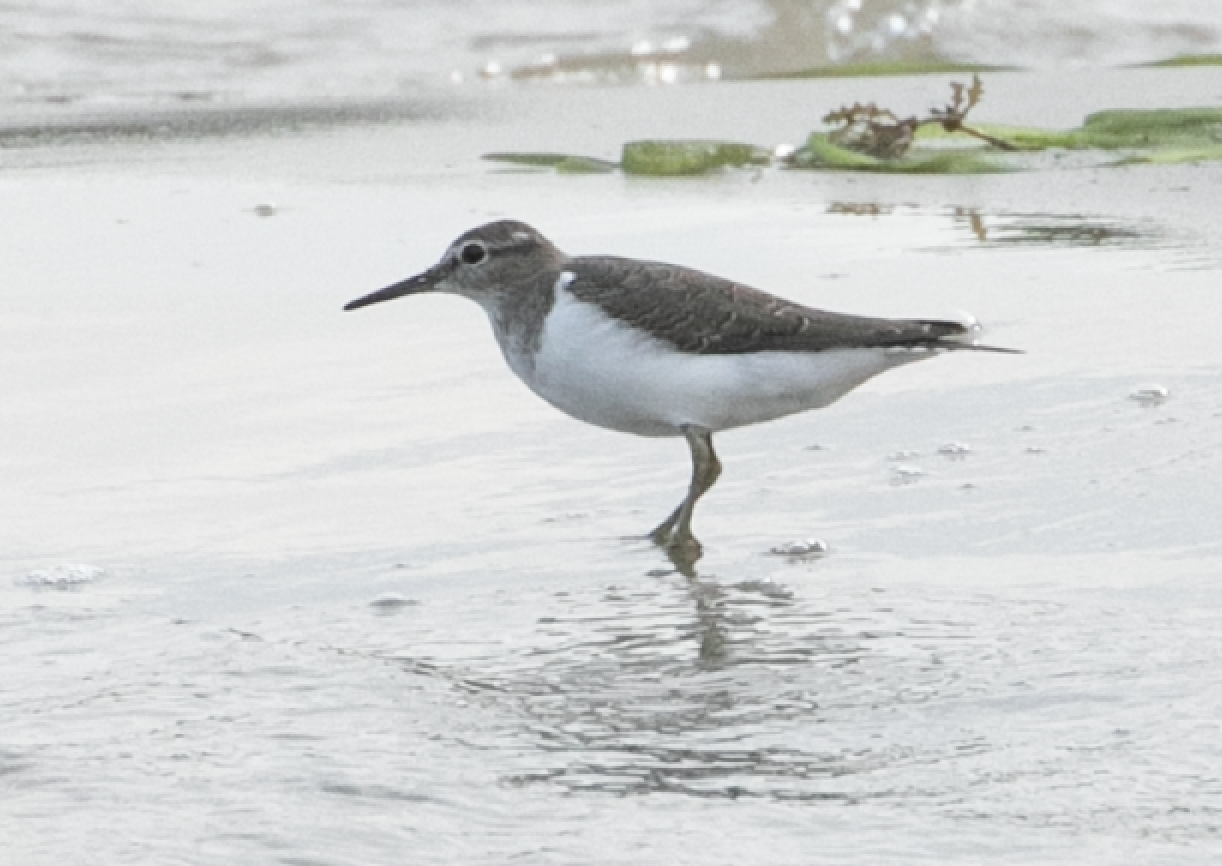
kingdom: Animalia
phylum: Chordata
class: Aves
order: Charadriiformes
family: Scolopacidae
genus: Actitis
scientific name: Actitis hypoleucos
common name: Common sandpiper
